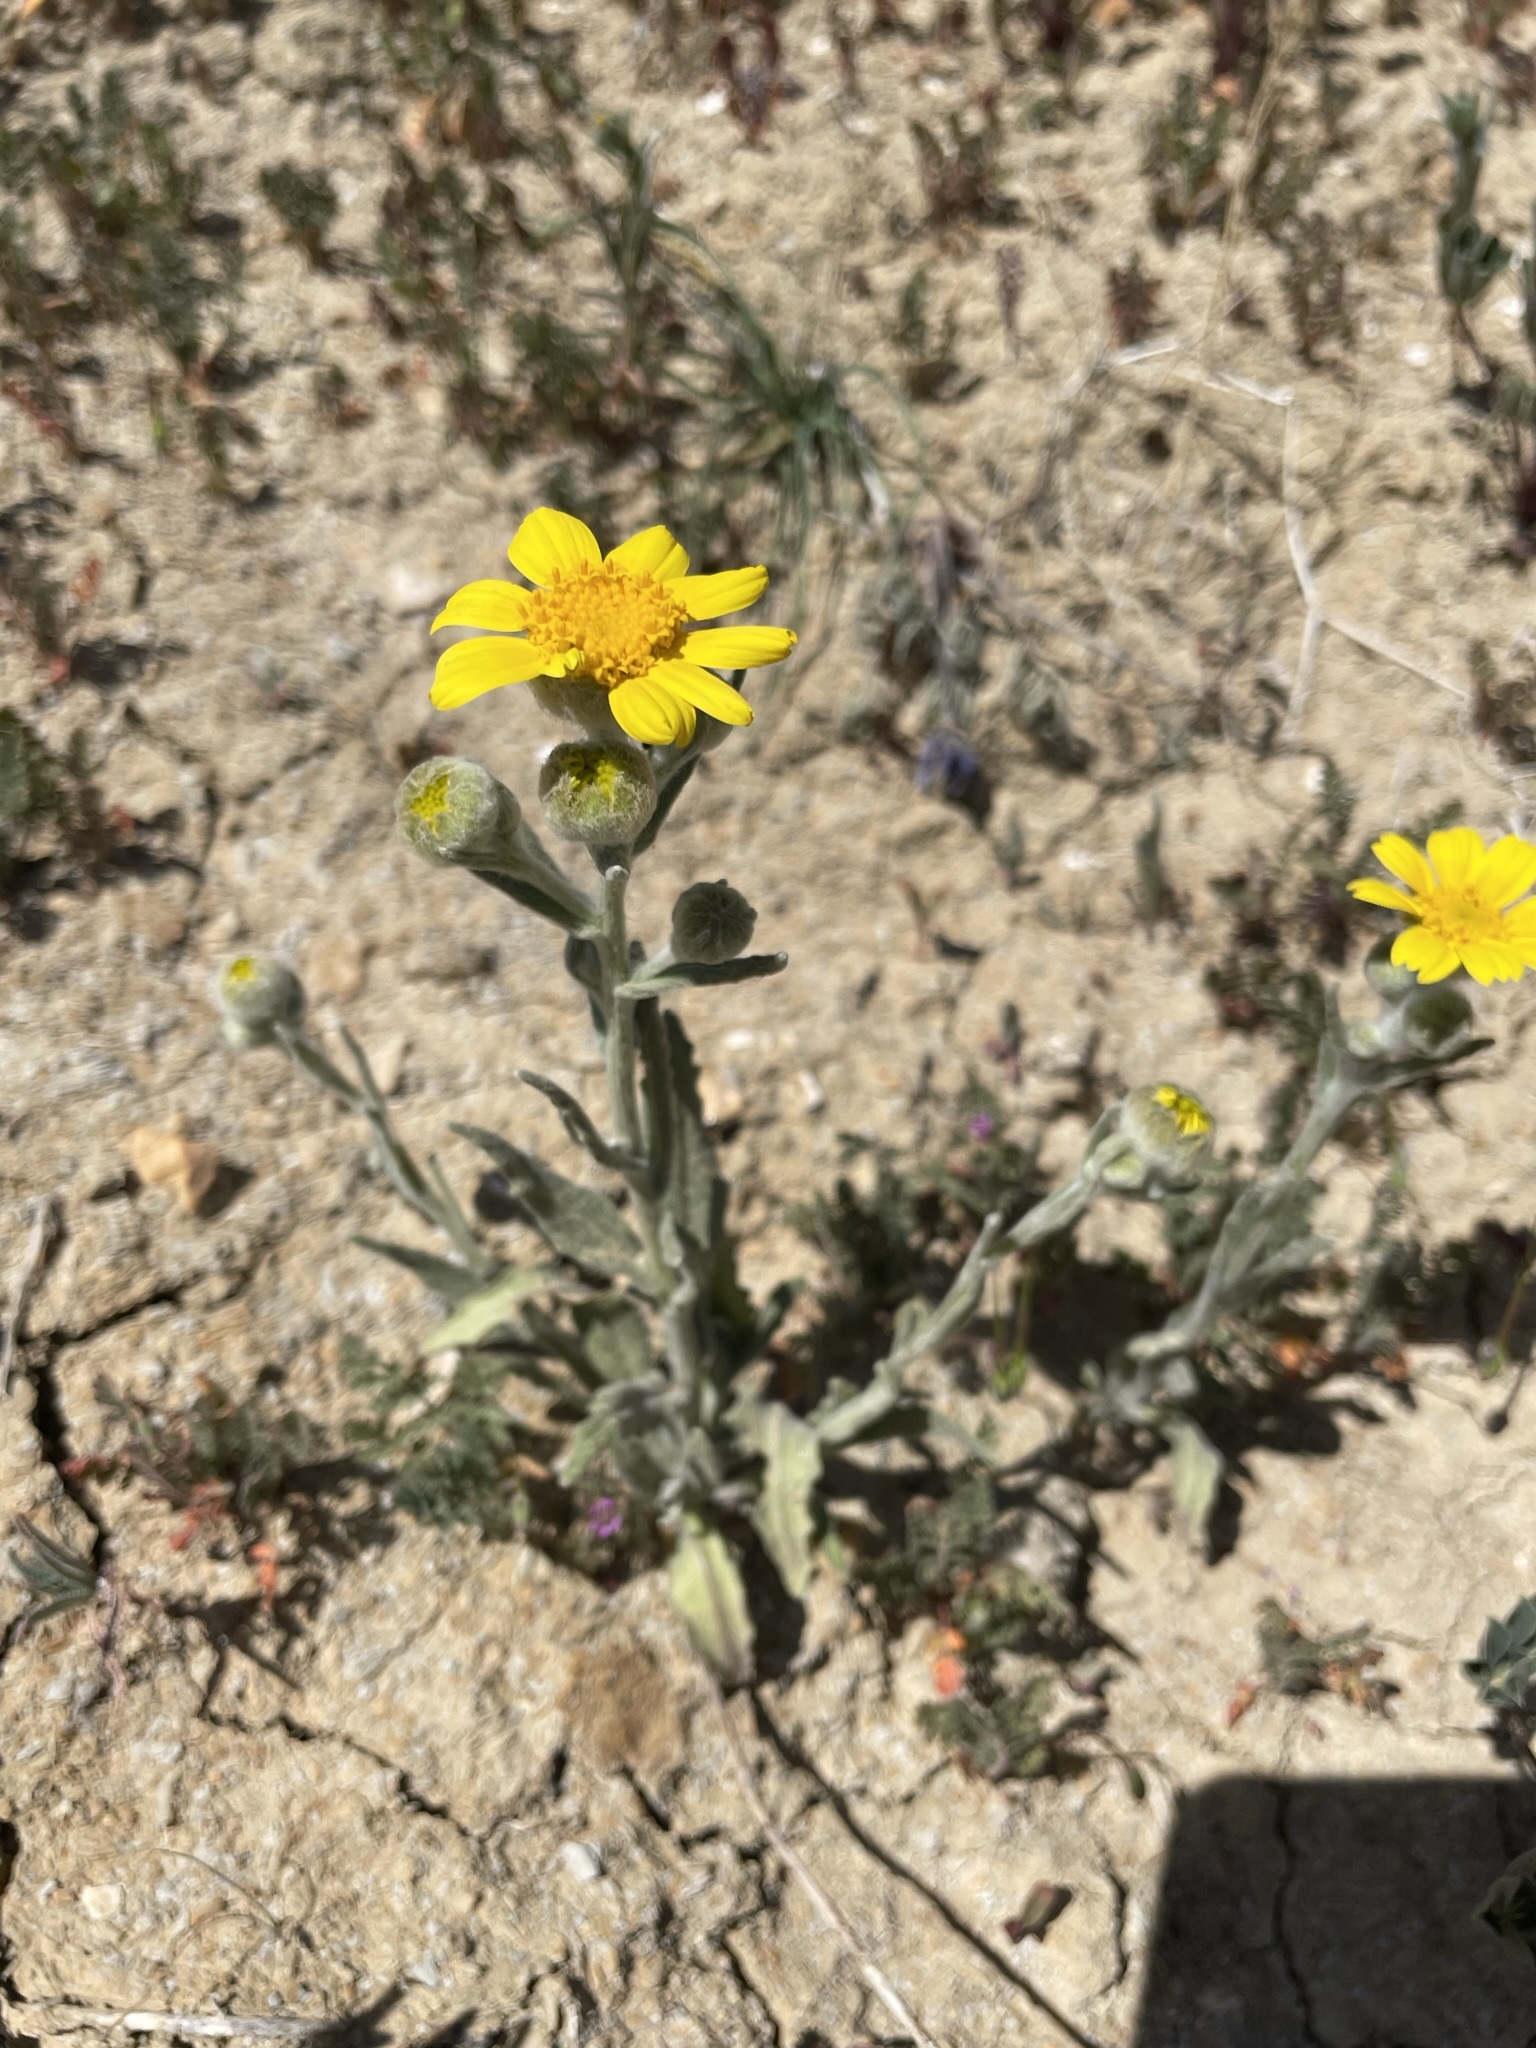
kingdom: Plantae
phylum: Tracheophyta
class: Magnoliopsida
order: Asterales
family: Asteraceae
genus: Monolopia
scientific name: Monolopia lanceolata
